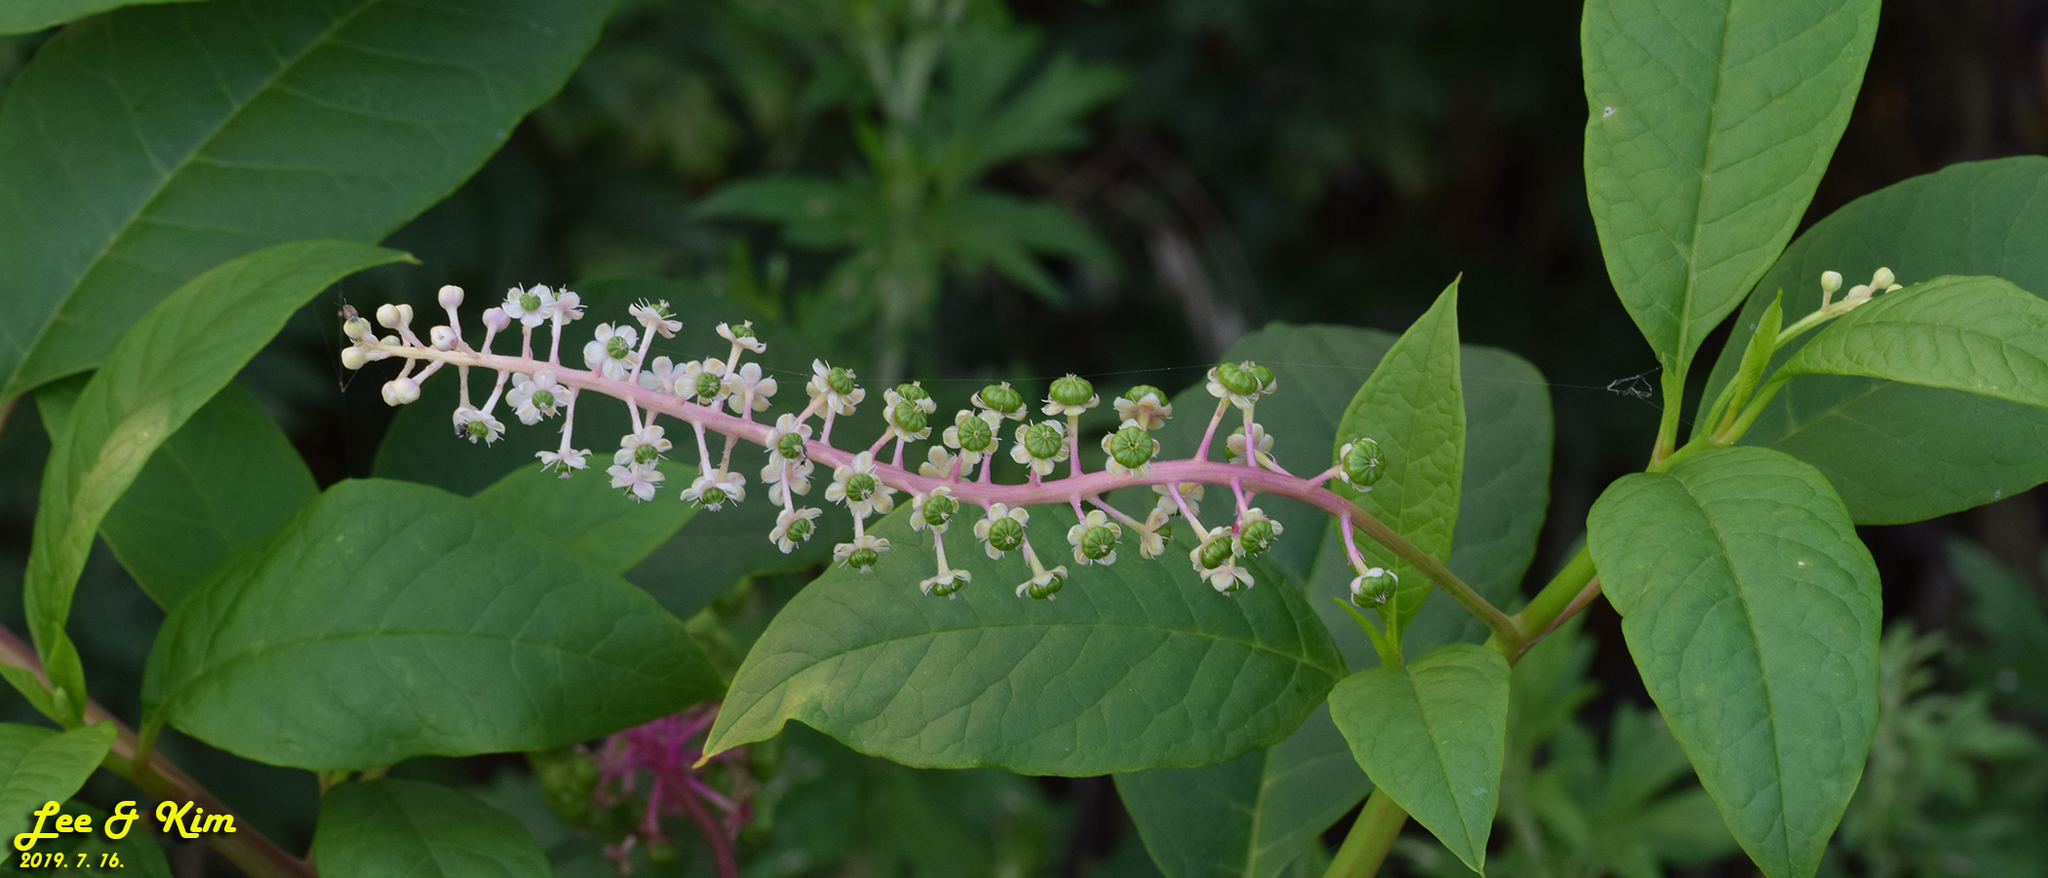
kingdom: Plantae
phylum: Tracheophyta
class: Magnoliopsida
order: Caryophyllales
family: Phytolaccaceae
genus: Phytolacca
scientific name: Phytolacca americana
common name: American pokeweed
